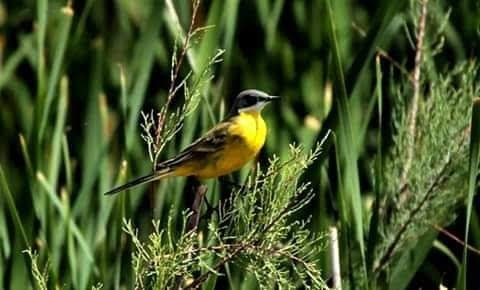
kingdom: Animalia
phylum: Chordata
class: Aves
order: Passeriformes
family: Motacillidae
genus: Motacilla
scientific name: Motacilla flava
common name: Western yellow wagtail
